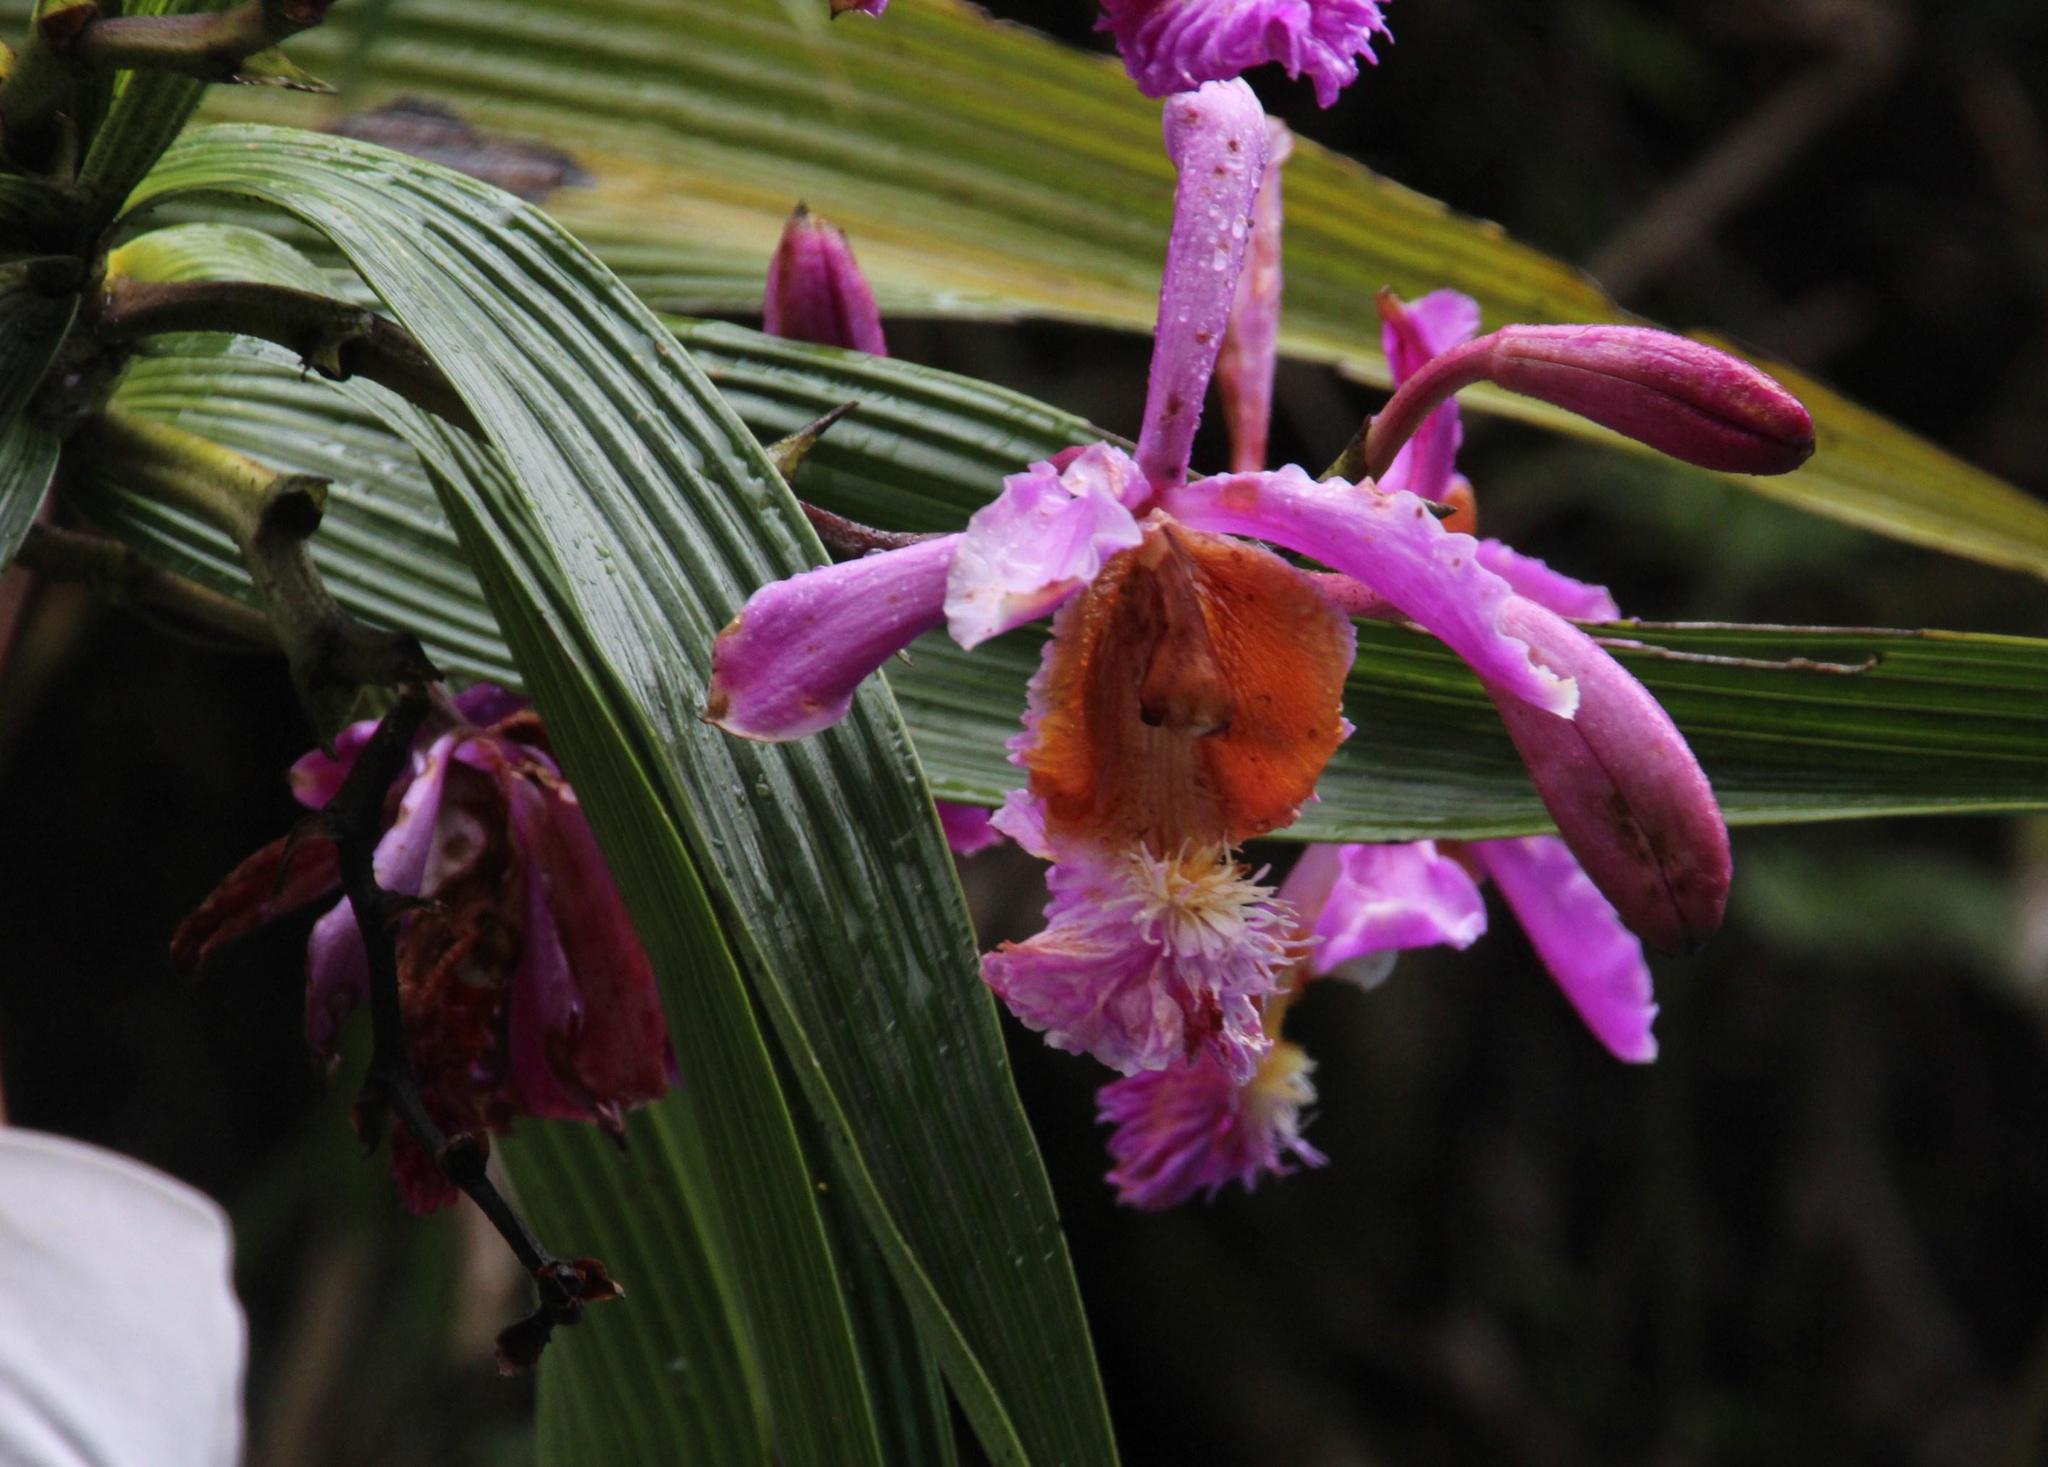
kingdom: Plantae
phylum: Tracheophyta
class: Liliopsida
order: Asparagales
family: Orchidaceae
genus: Sobralia
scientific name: Sobralia dichotoma
